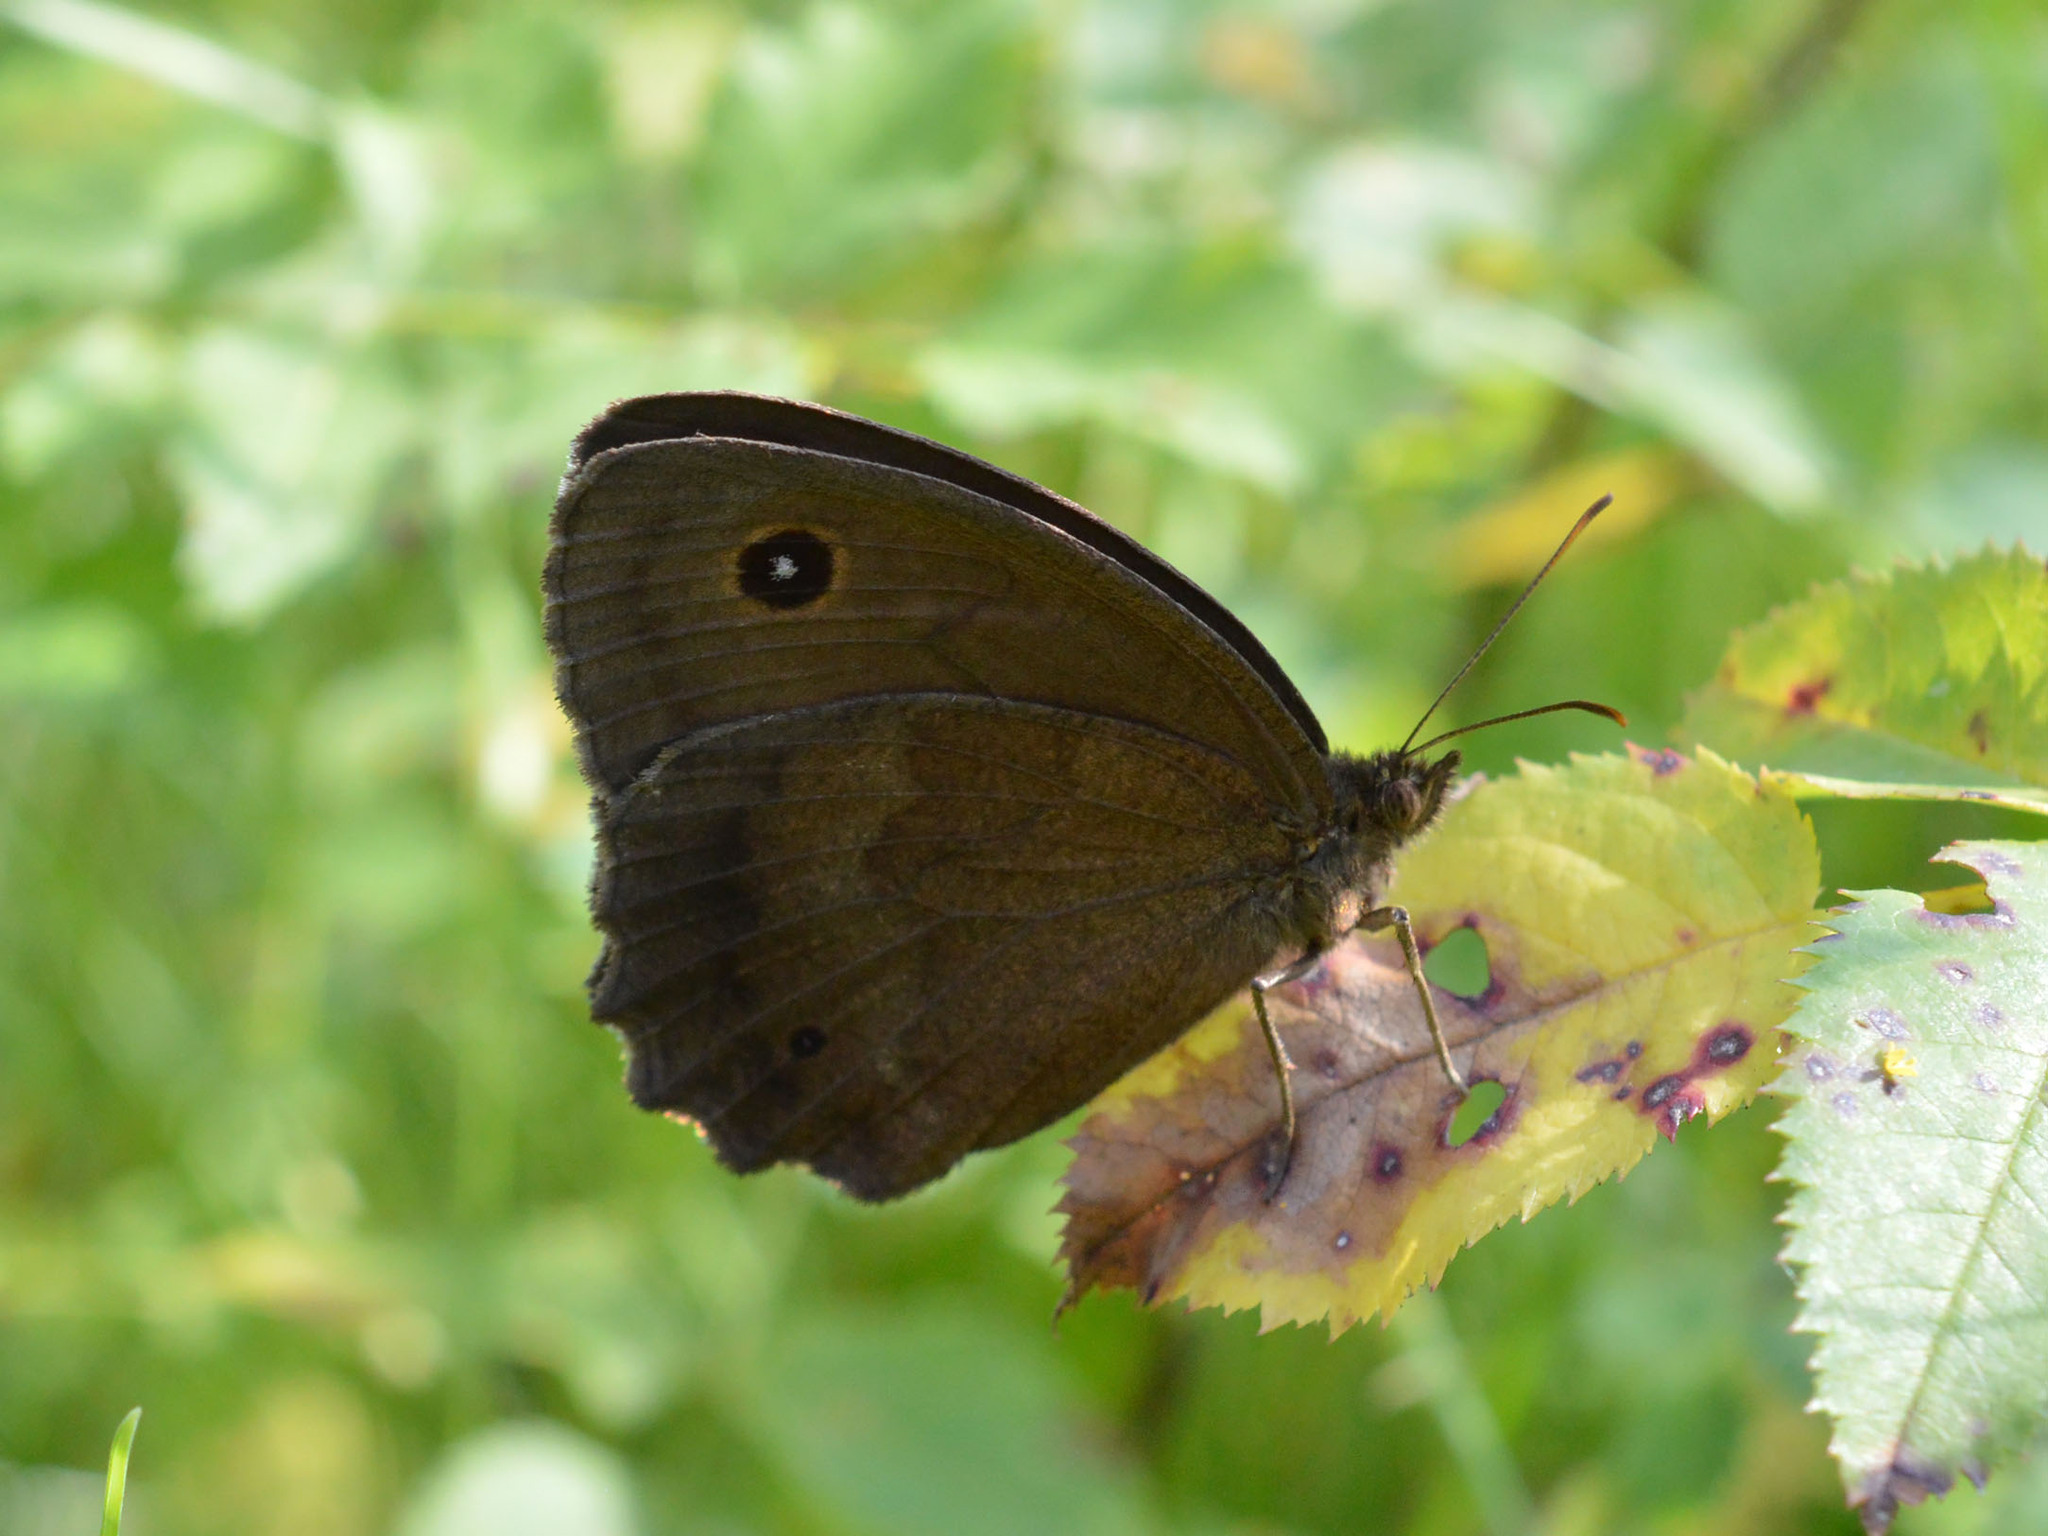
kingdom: Animalia
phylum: Arthropoda
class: Insecta
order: Lepidoptera
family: Nymphalidae
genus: Minois
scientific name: Minois dryas
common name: Dryad
